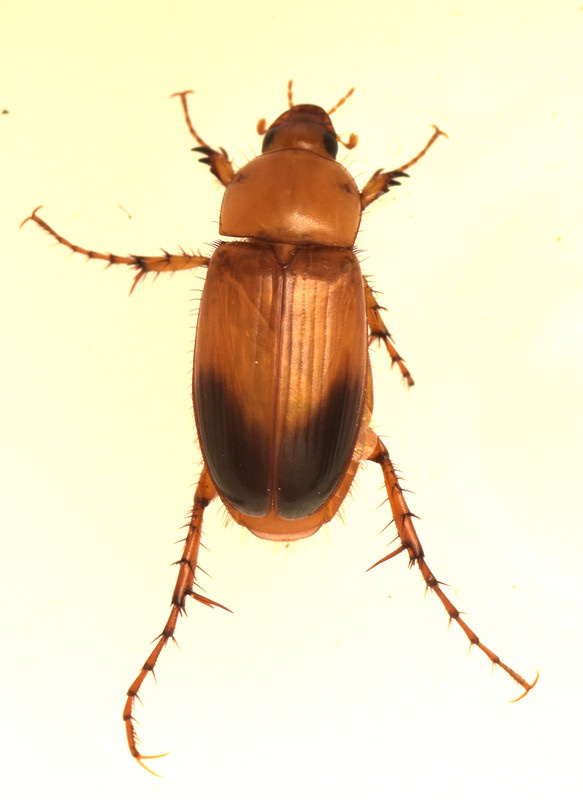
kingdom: Animalia
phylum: Arthropoda
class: Insecta
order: Coleoptera
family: Scarabaeidae
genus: Phyllotocus
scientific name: Phyllotocus macleayi
